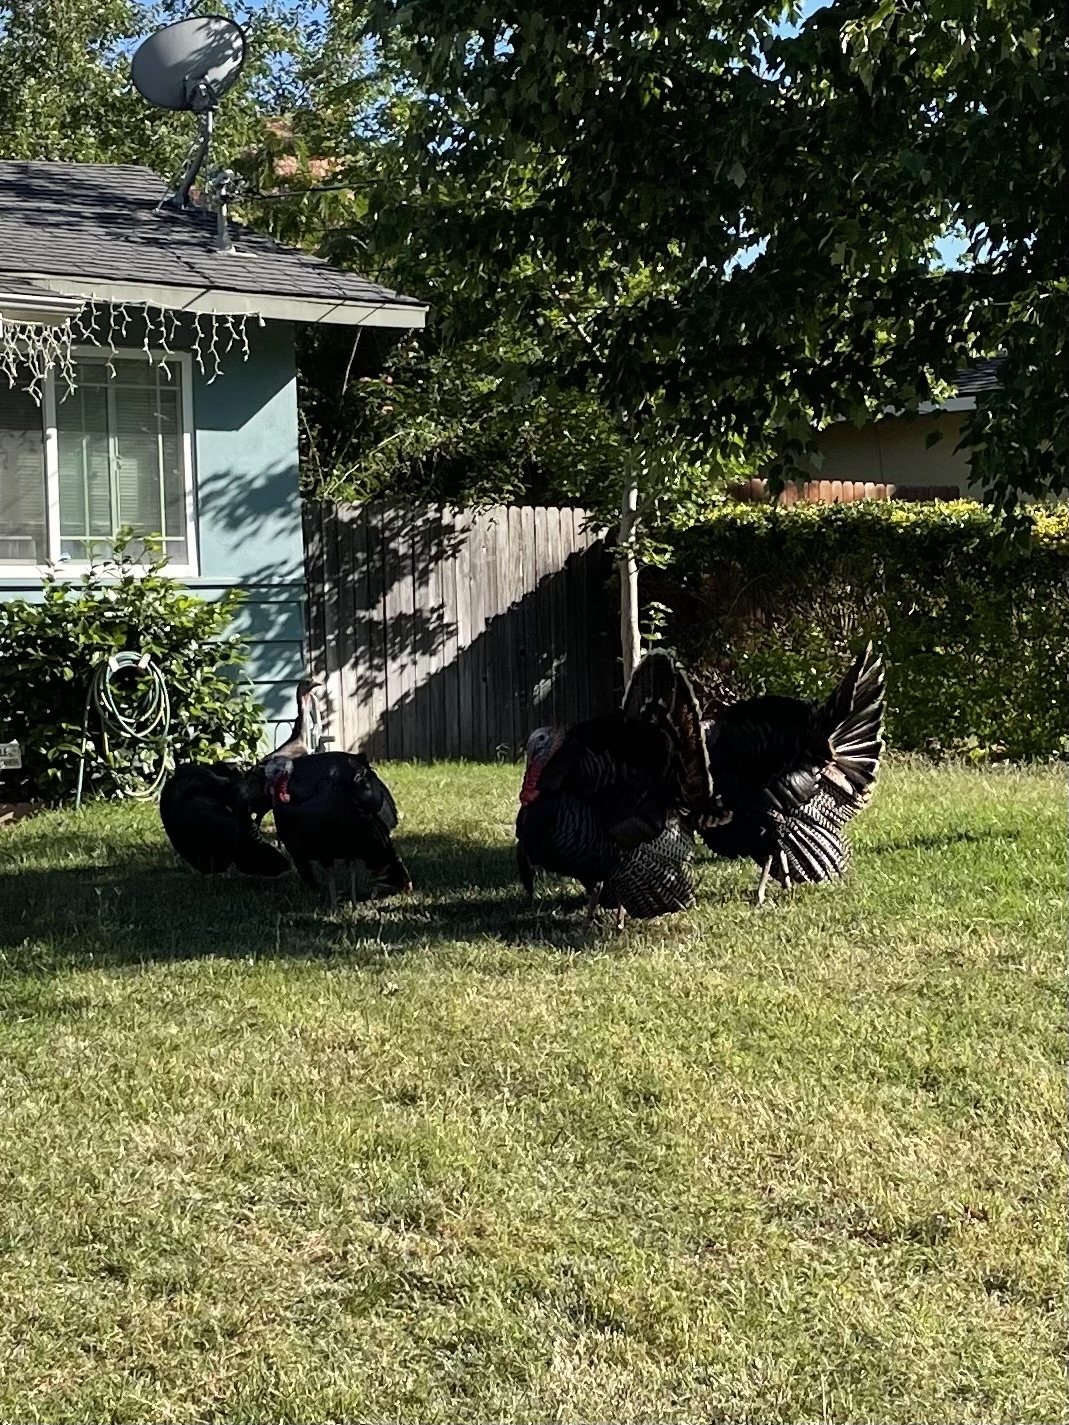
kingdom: Animalia
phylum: Chordata
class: Aves
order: Galliformes
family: Phasianidae
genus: Meleagris
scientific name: Meleagris gallopavo
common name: Wild turkey
